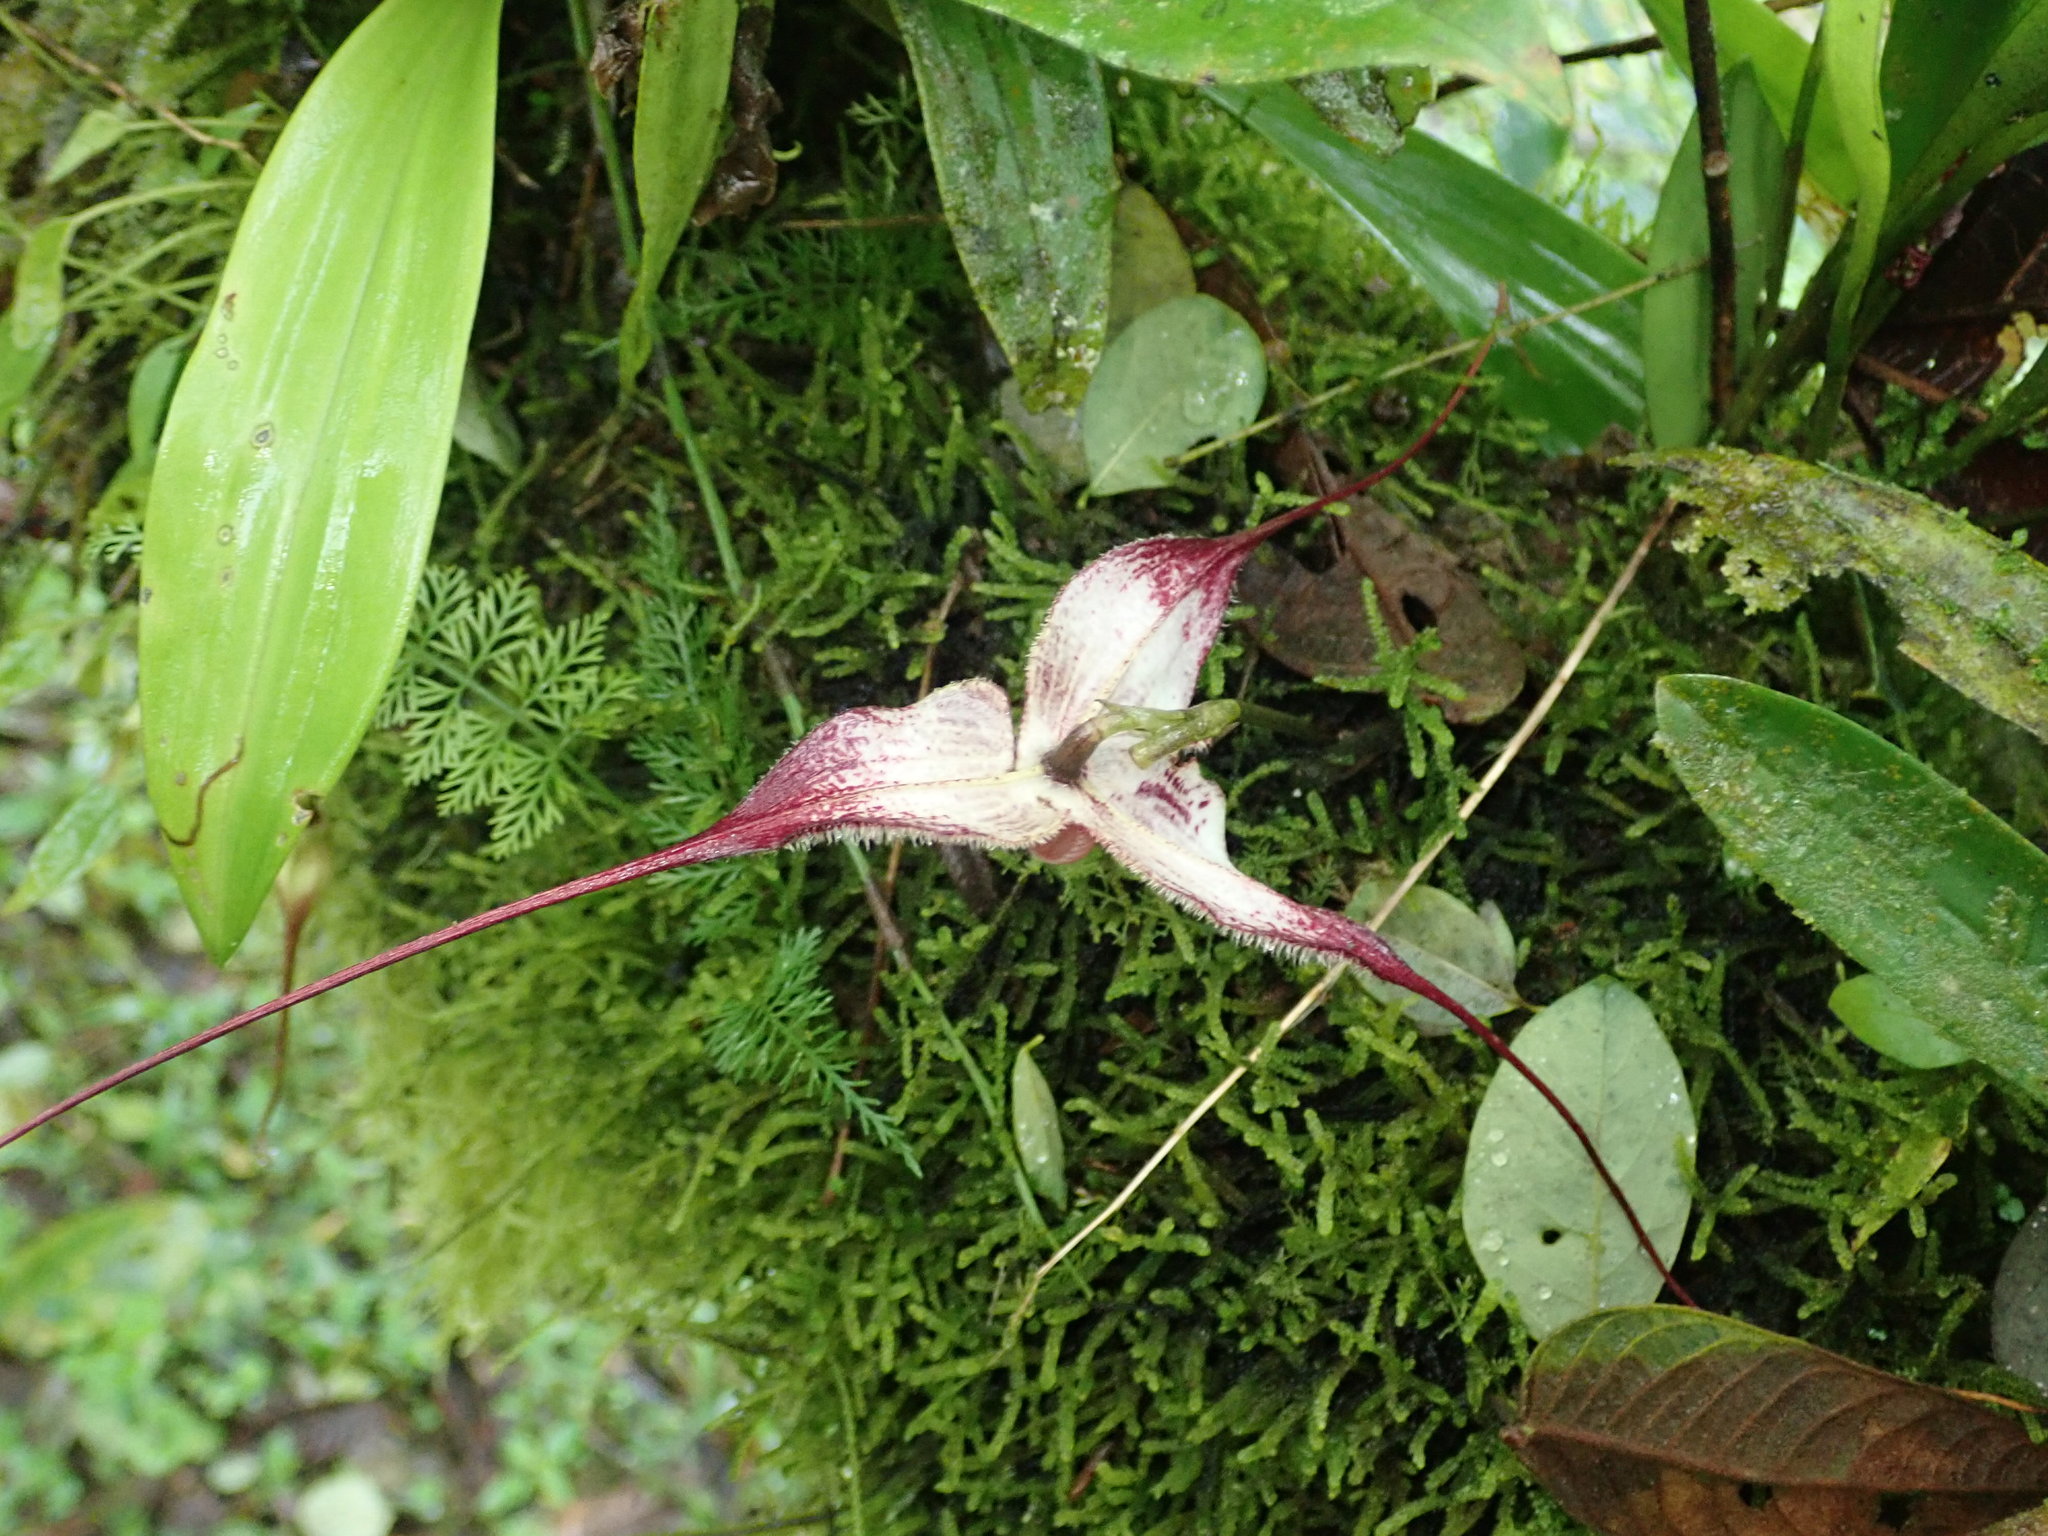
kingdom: Plantae
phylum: Tracheophyta
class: Liliopsida
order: Asparagales
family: Orchidaceae
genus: Dracula
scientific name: Dracula lafleurii
